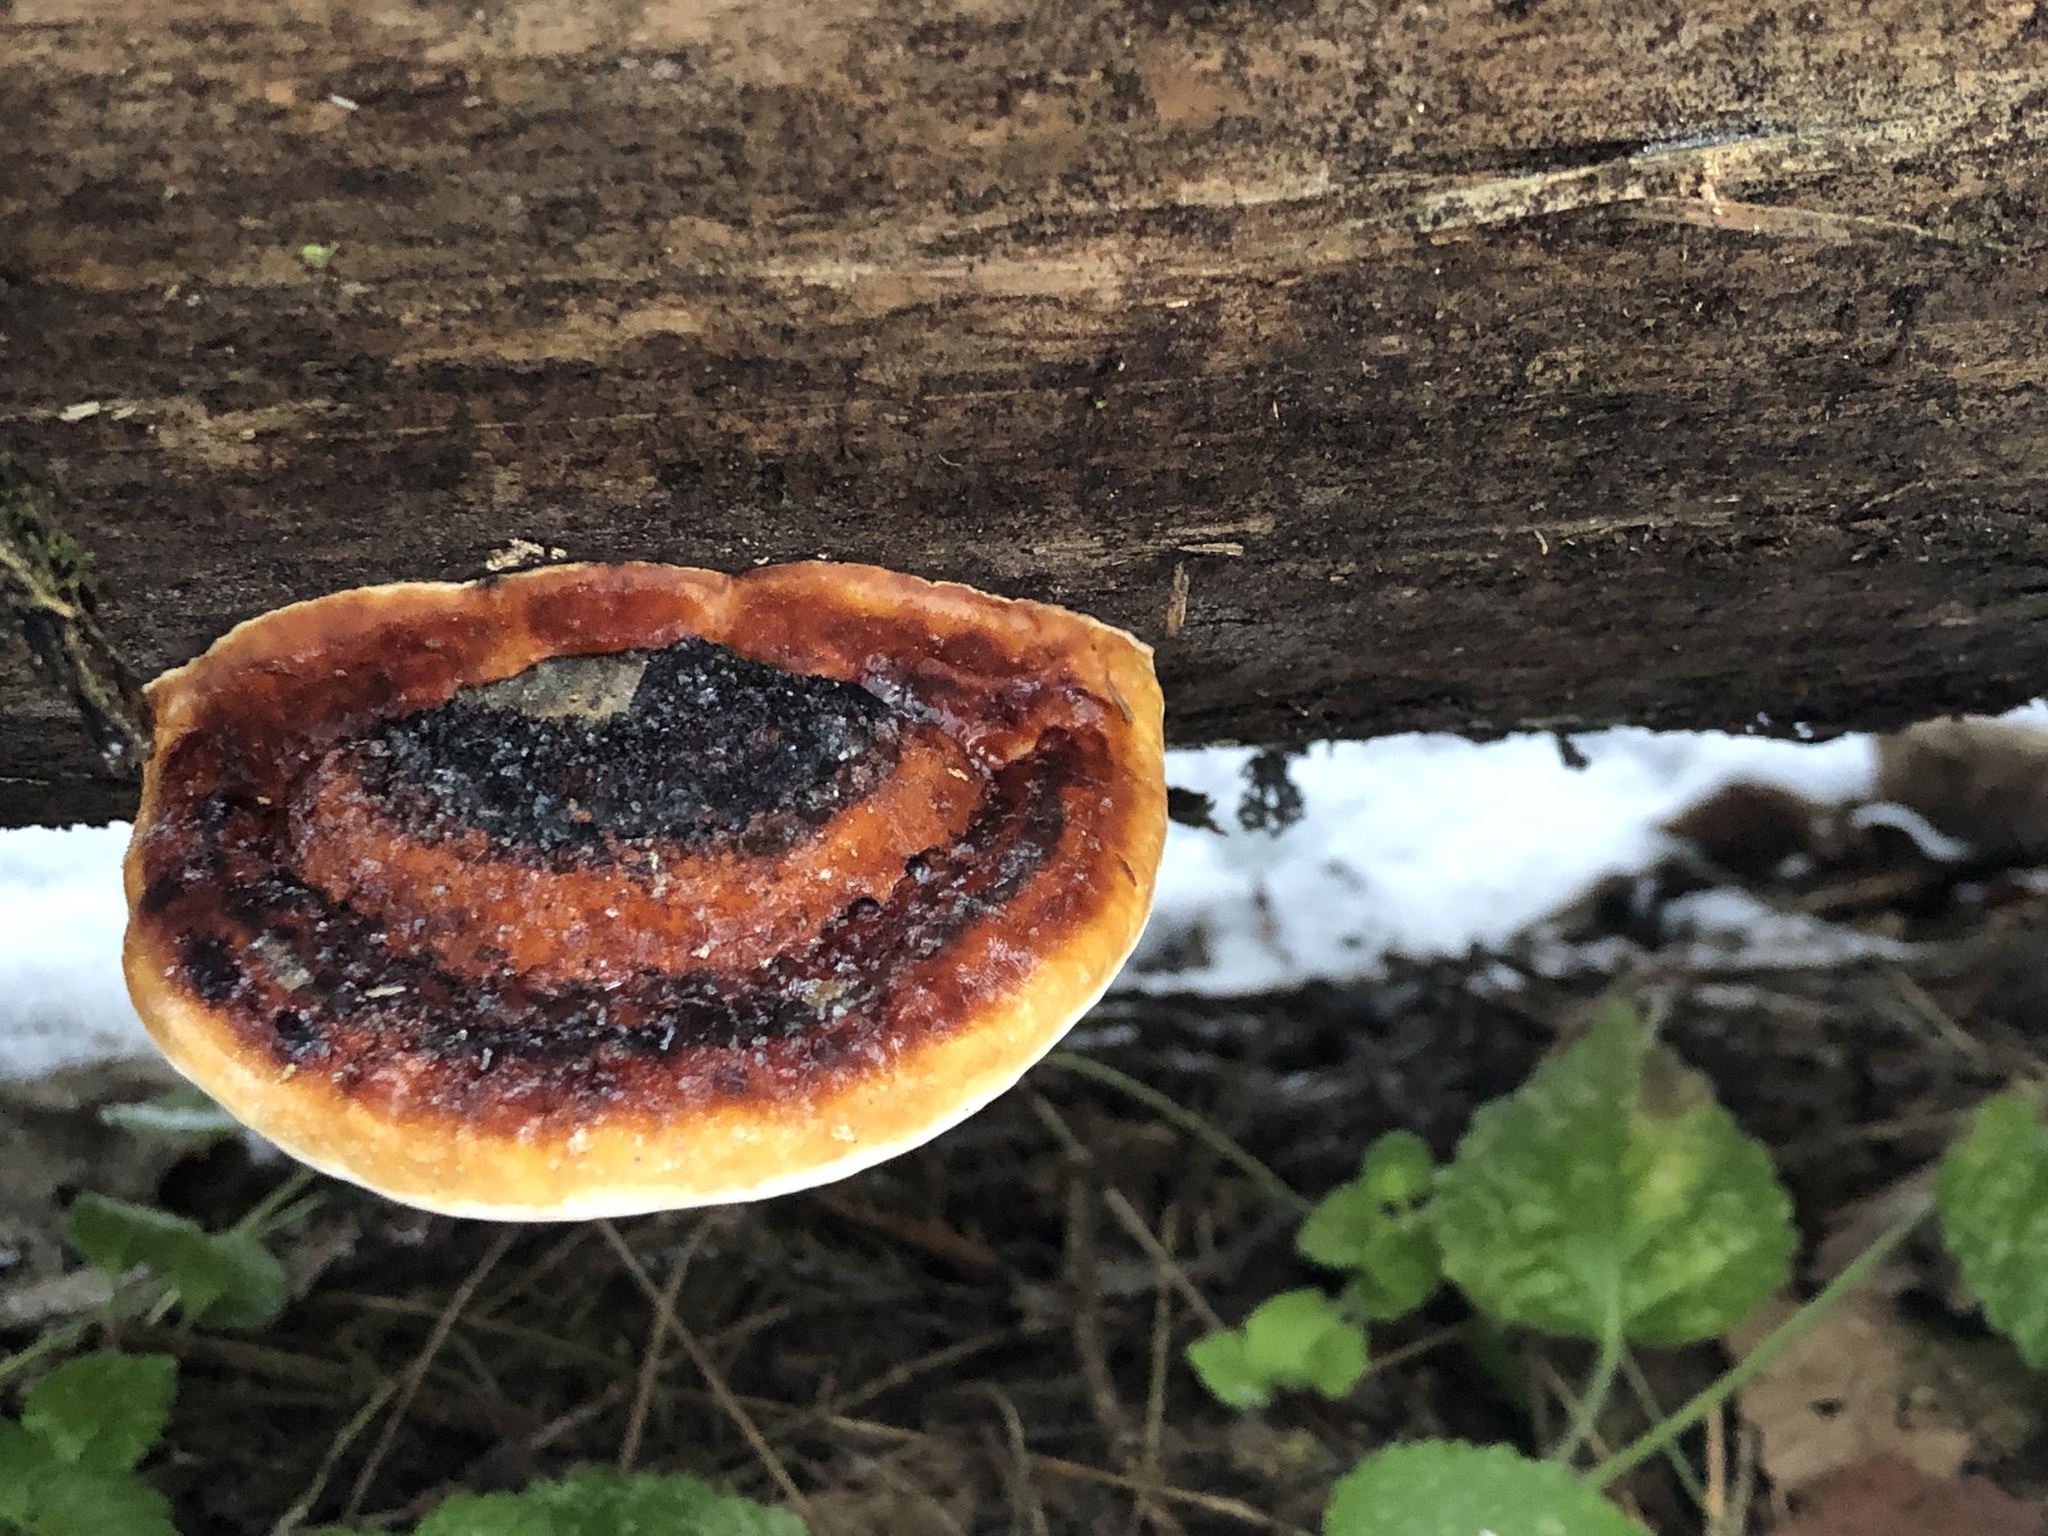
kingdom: Fungi
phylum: Basidiomycota
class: Agaricomycetes
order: Polyporales
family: Fomitopsidaceae
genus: Fomitopsis
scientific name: Fomitopsis pinicola
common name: Red-belted bracket
